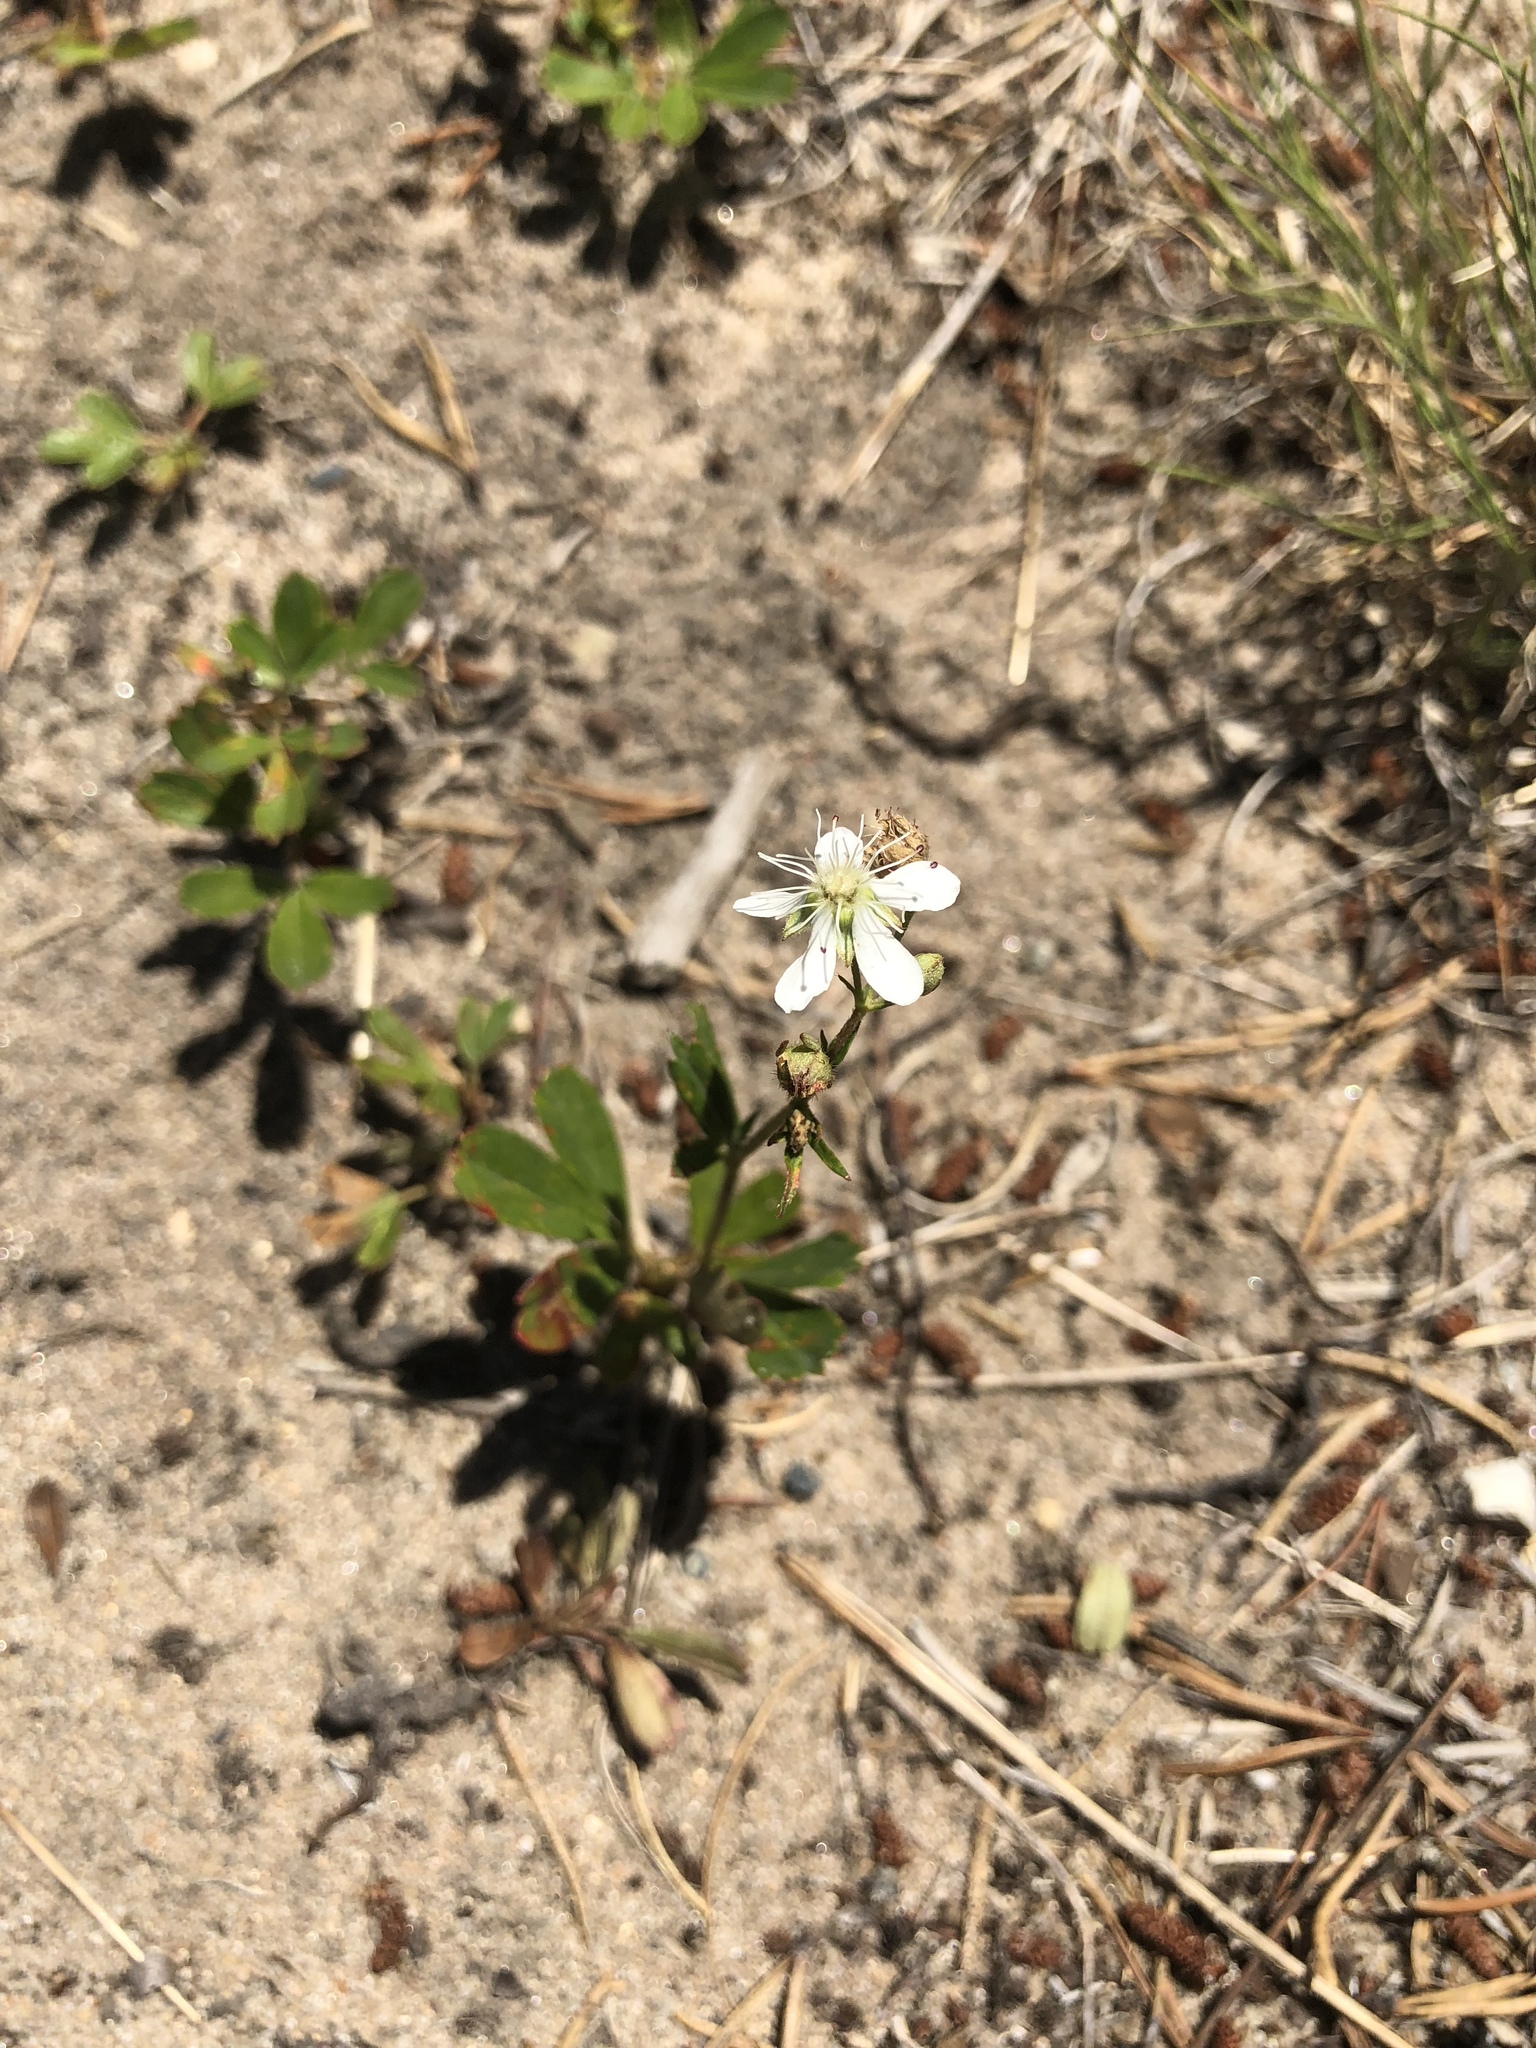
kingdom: Plantae
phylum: Tracheophyta
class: Magnoliopsida
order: Rosales
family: Rosaceae
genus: Sibbaldia
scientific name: Sibbaldia tridentata
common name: Three-toothed cinquefoil
